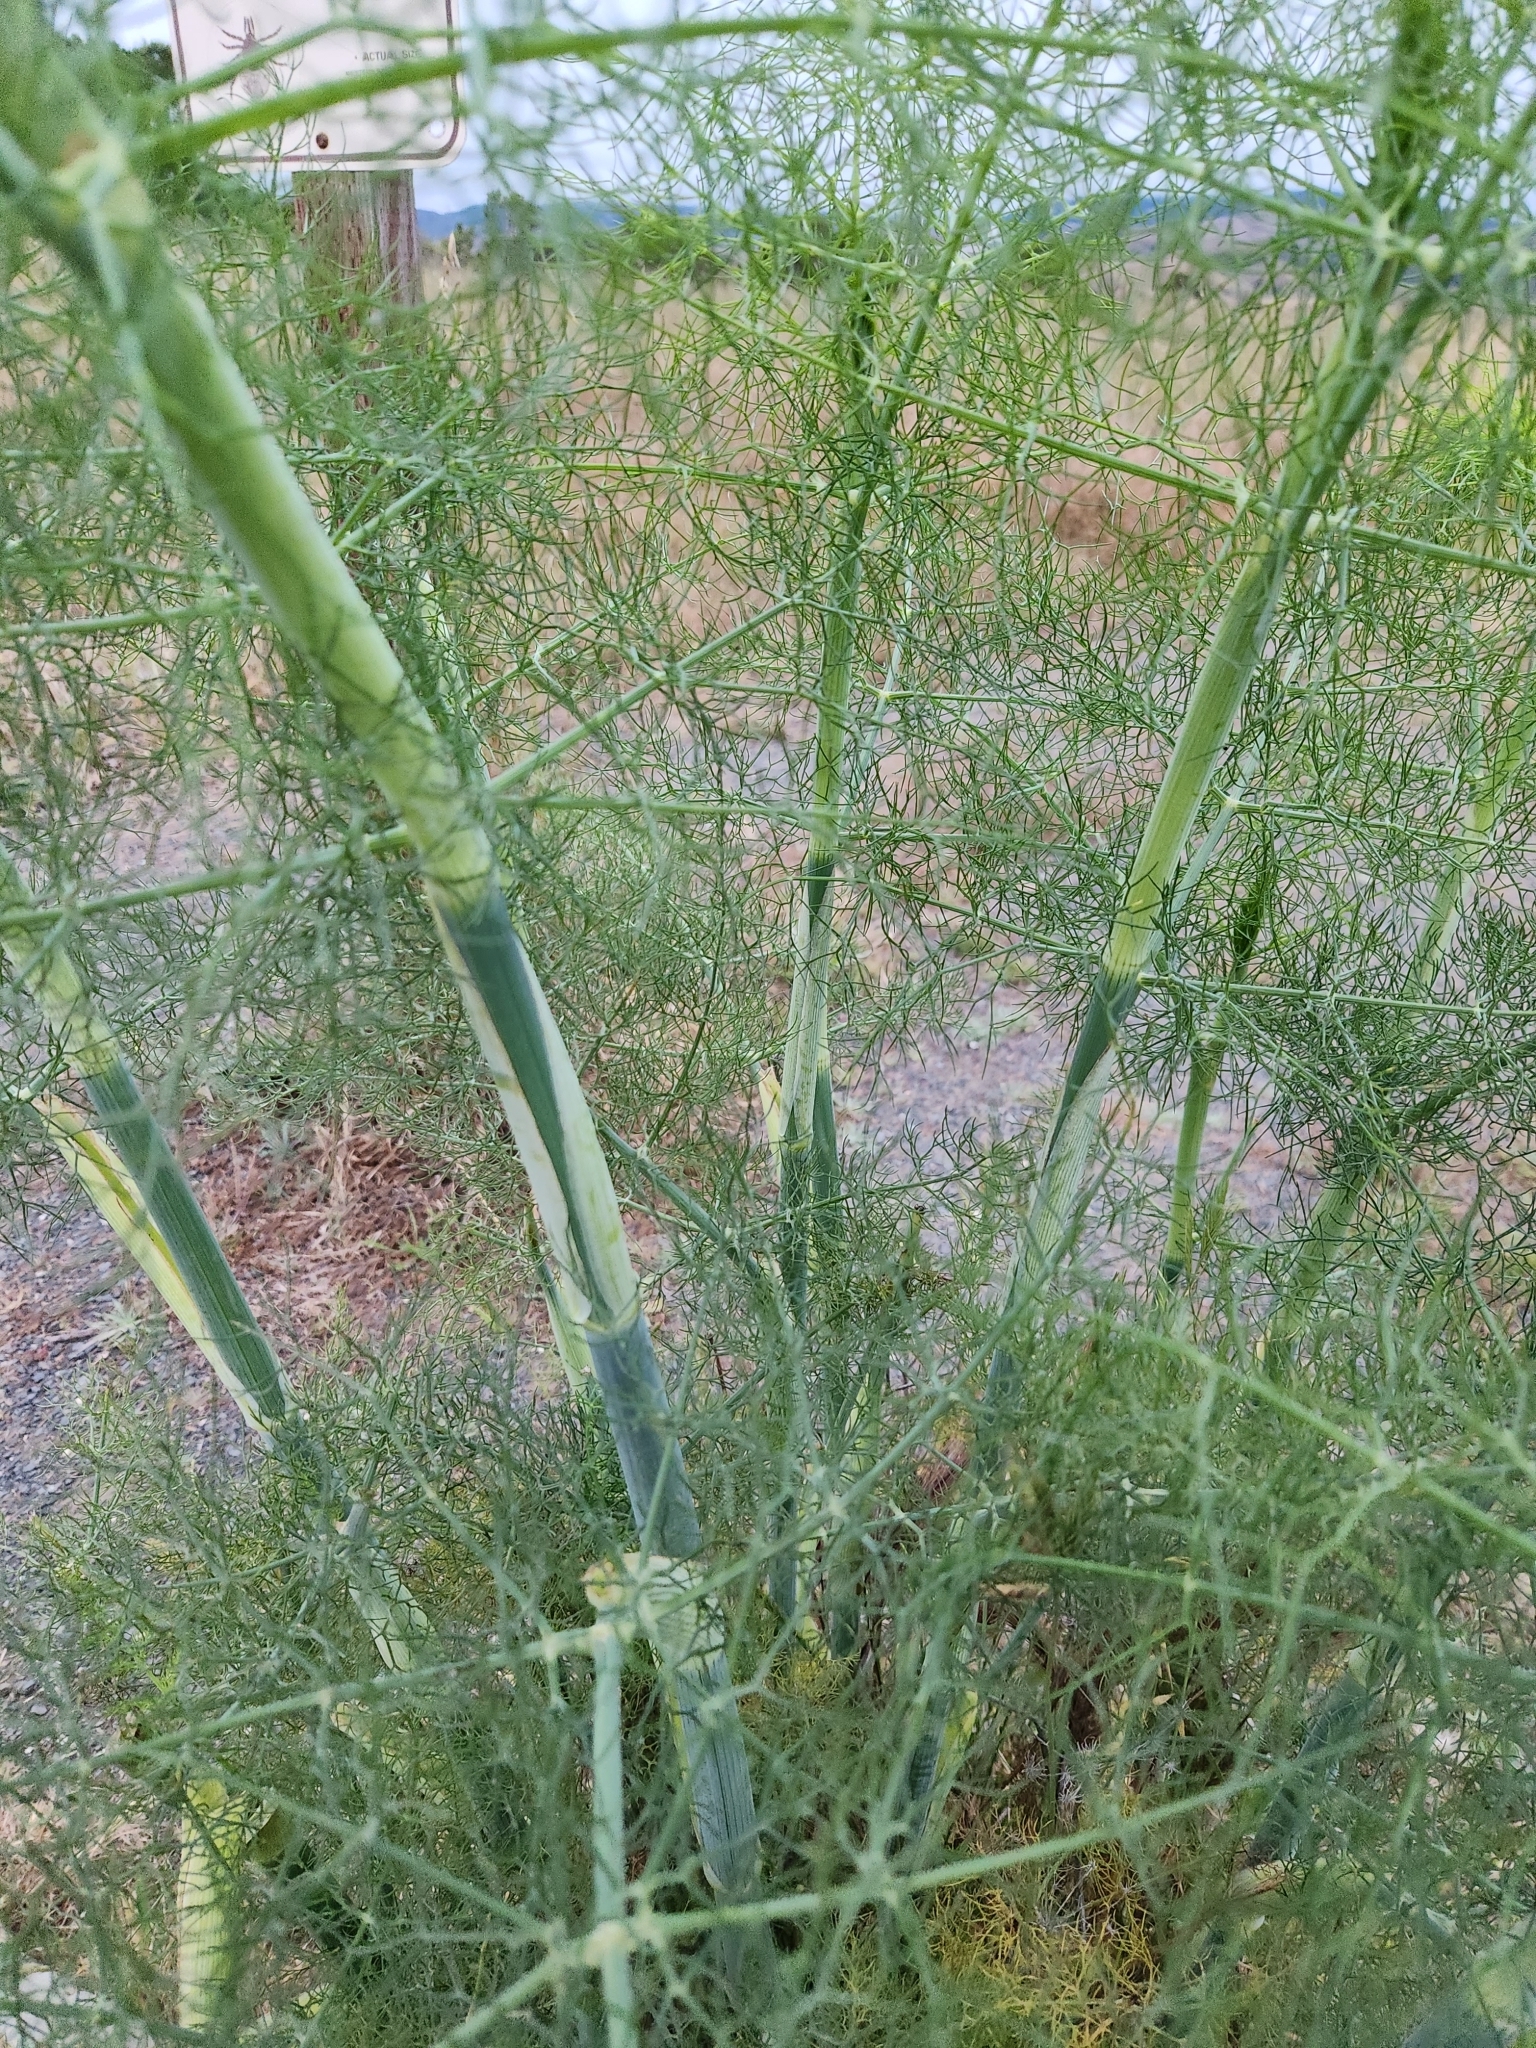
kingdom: Plantae
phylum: Tracheophyta
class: Magnoliopsida
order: Apiales
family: Apiaceae
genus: Foeniculum
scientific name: Foeniculum vulgare
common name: Fennel
